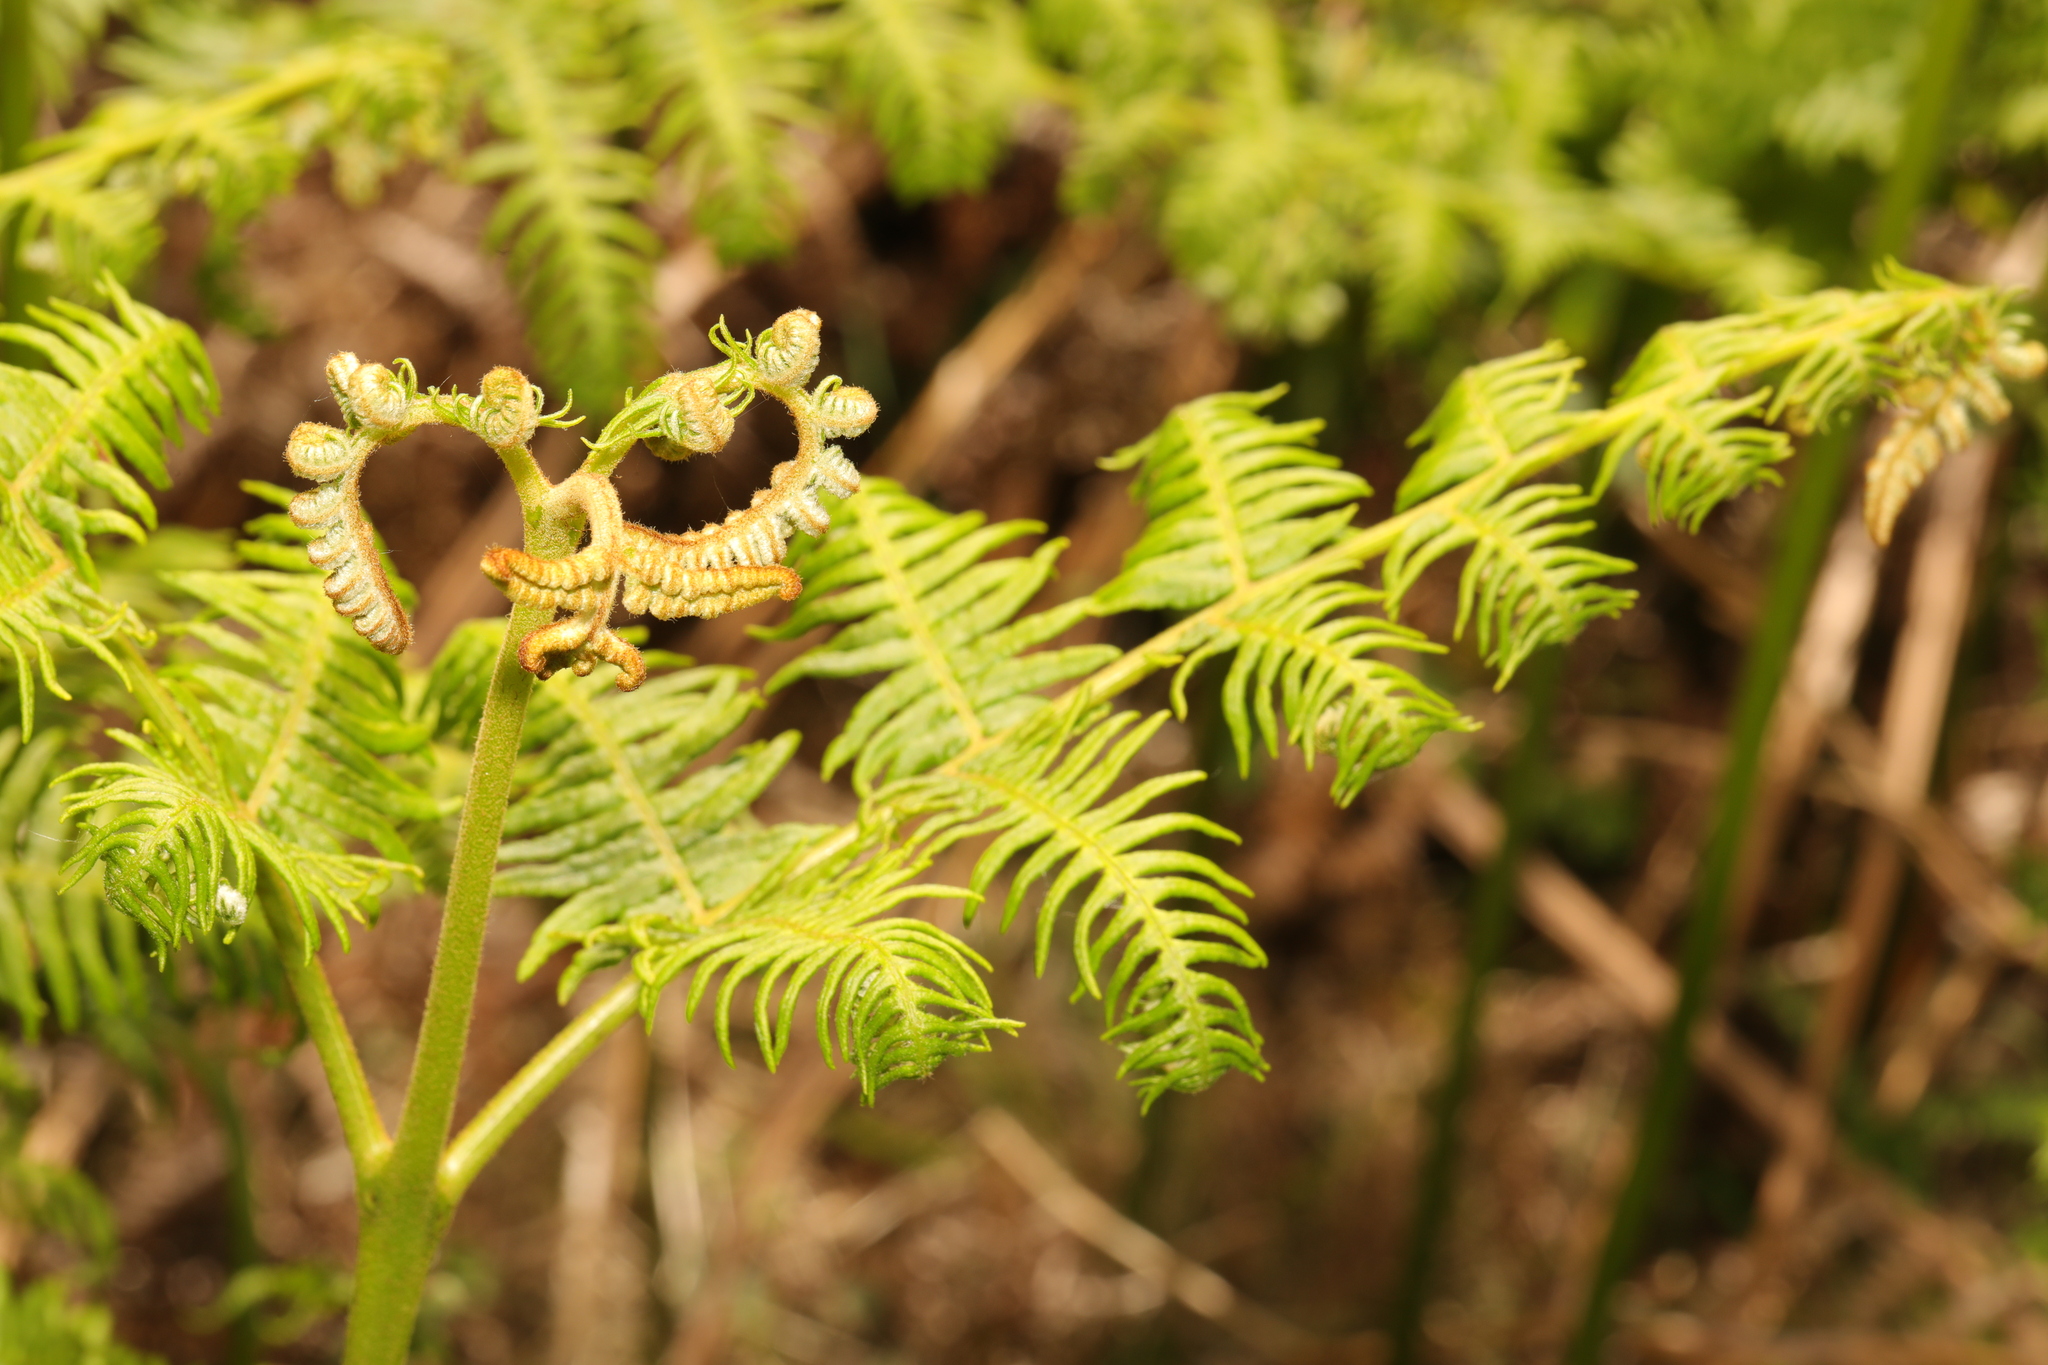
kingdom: Plantae
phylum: Tracheophyta
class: Polypodiopsida
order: Polypodiales
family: Dennstaedtiaceae
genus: Pteridium
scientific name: Pteridium aquilinum
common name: Bracken
